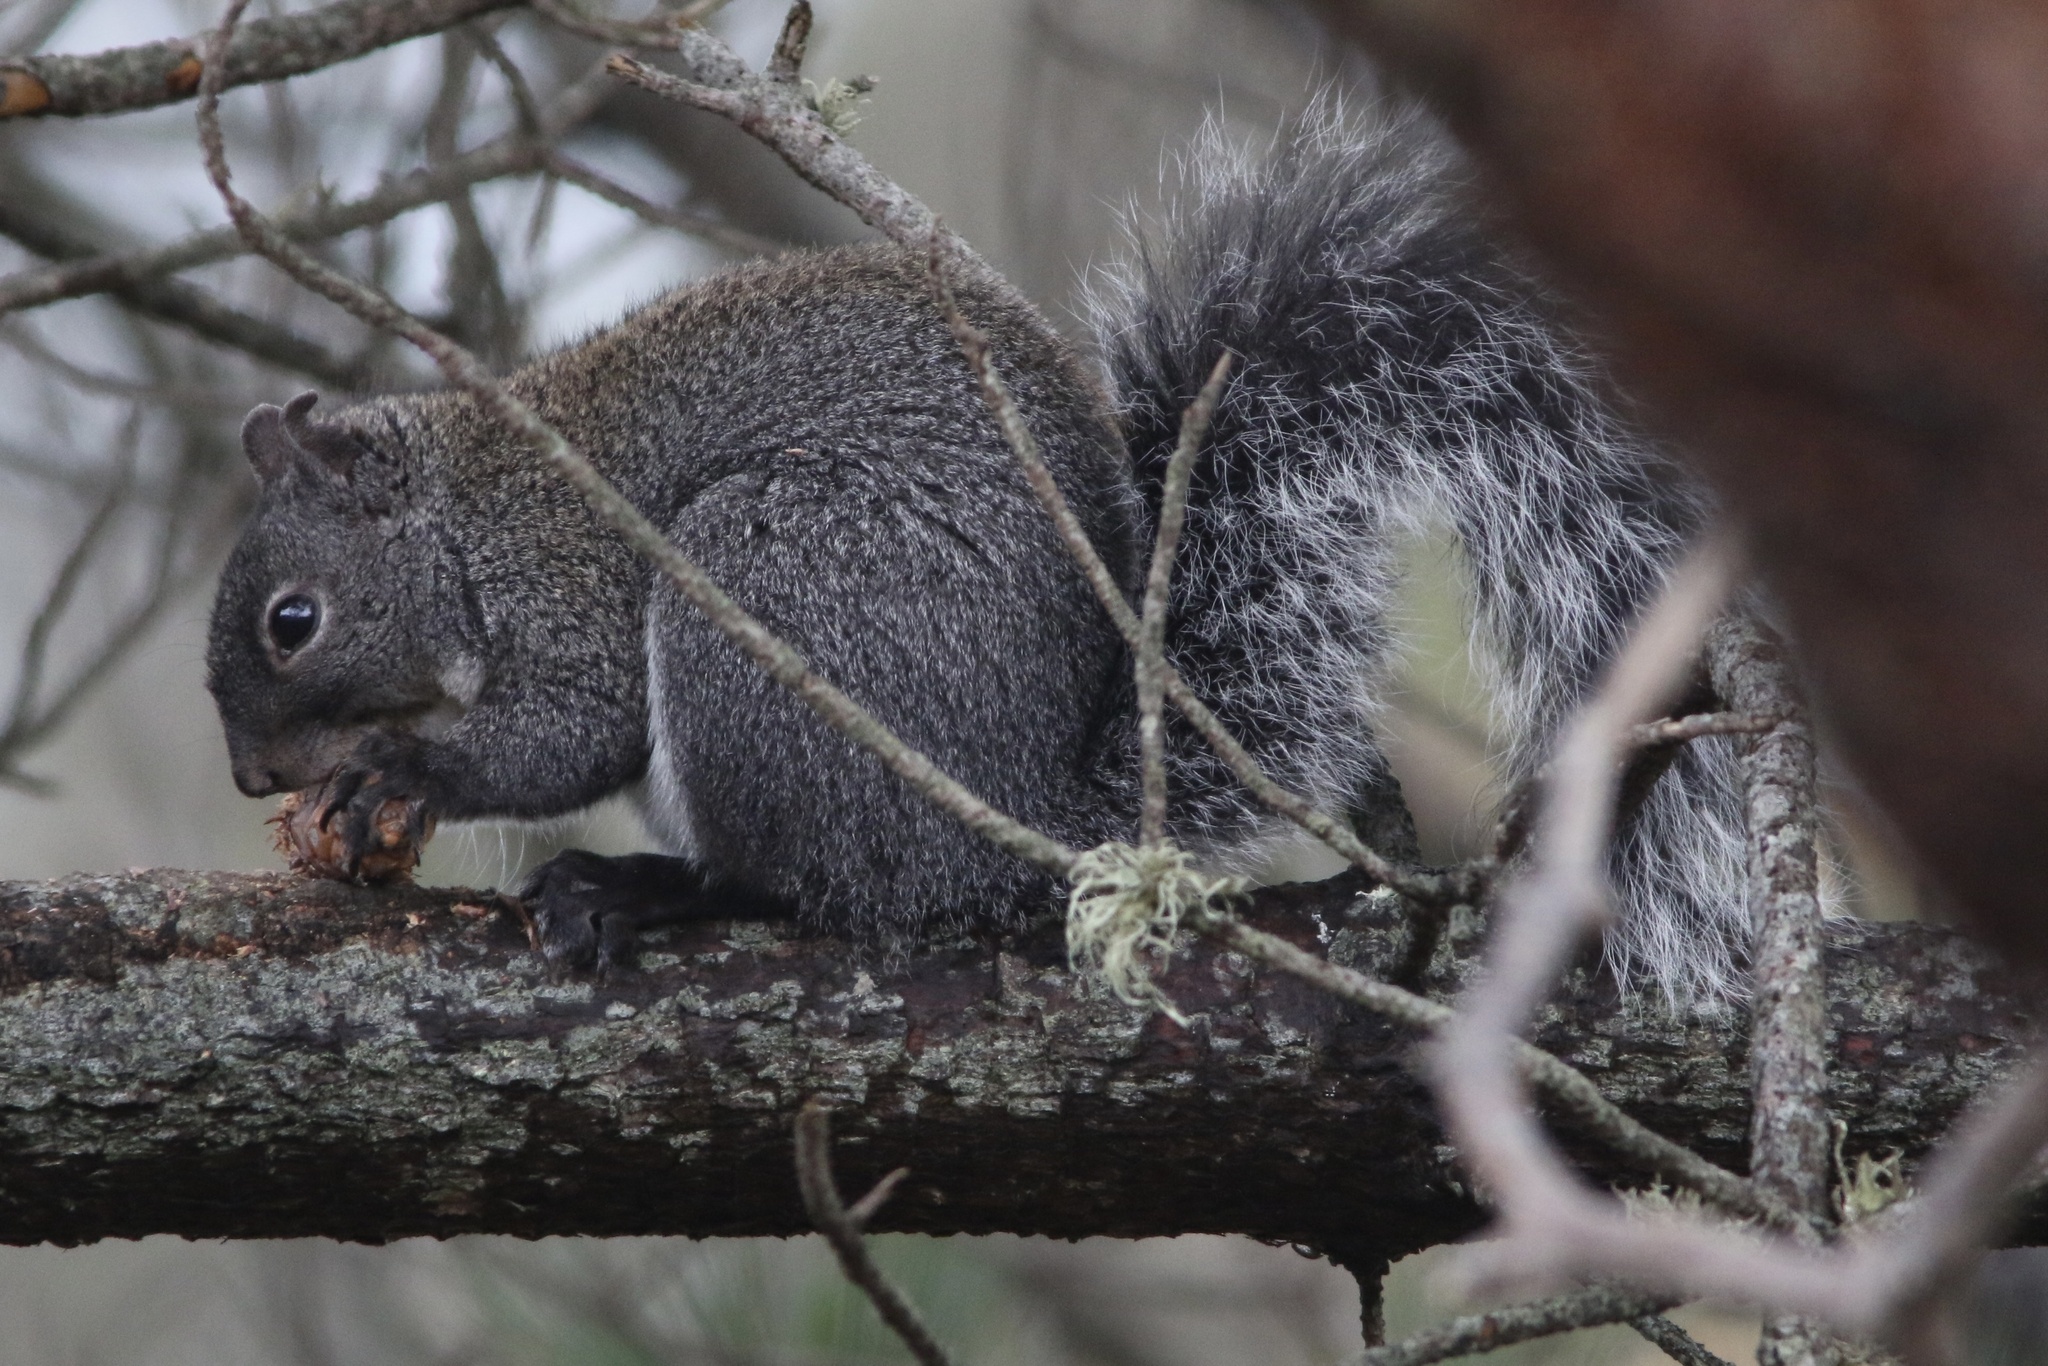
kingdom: Animalia
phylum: Chordata
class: Mammalia
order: Rodentia
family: Sciuridae
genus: Sciurus
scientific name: Sciurus griseus
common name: Western gray squirrel
